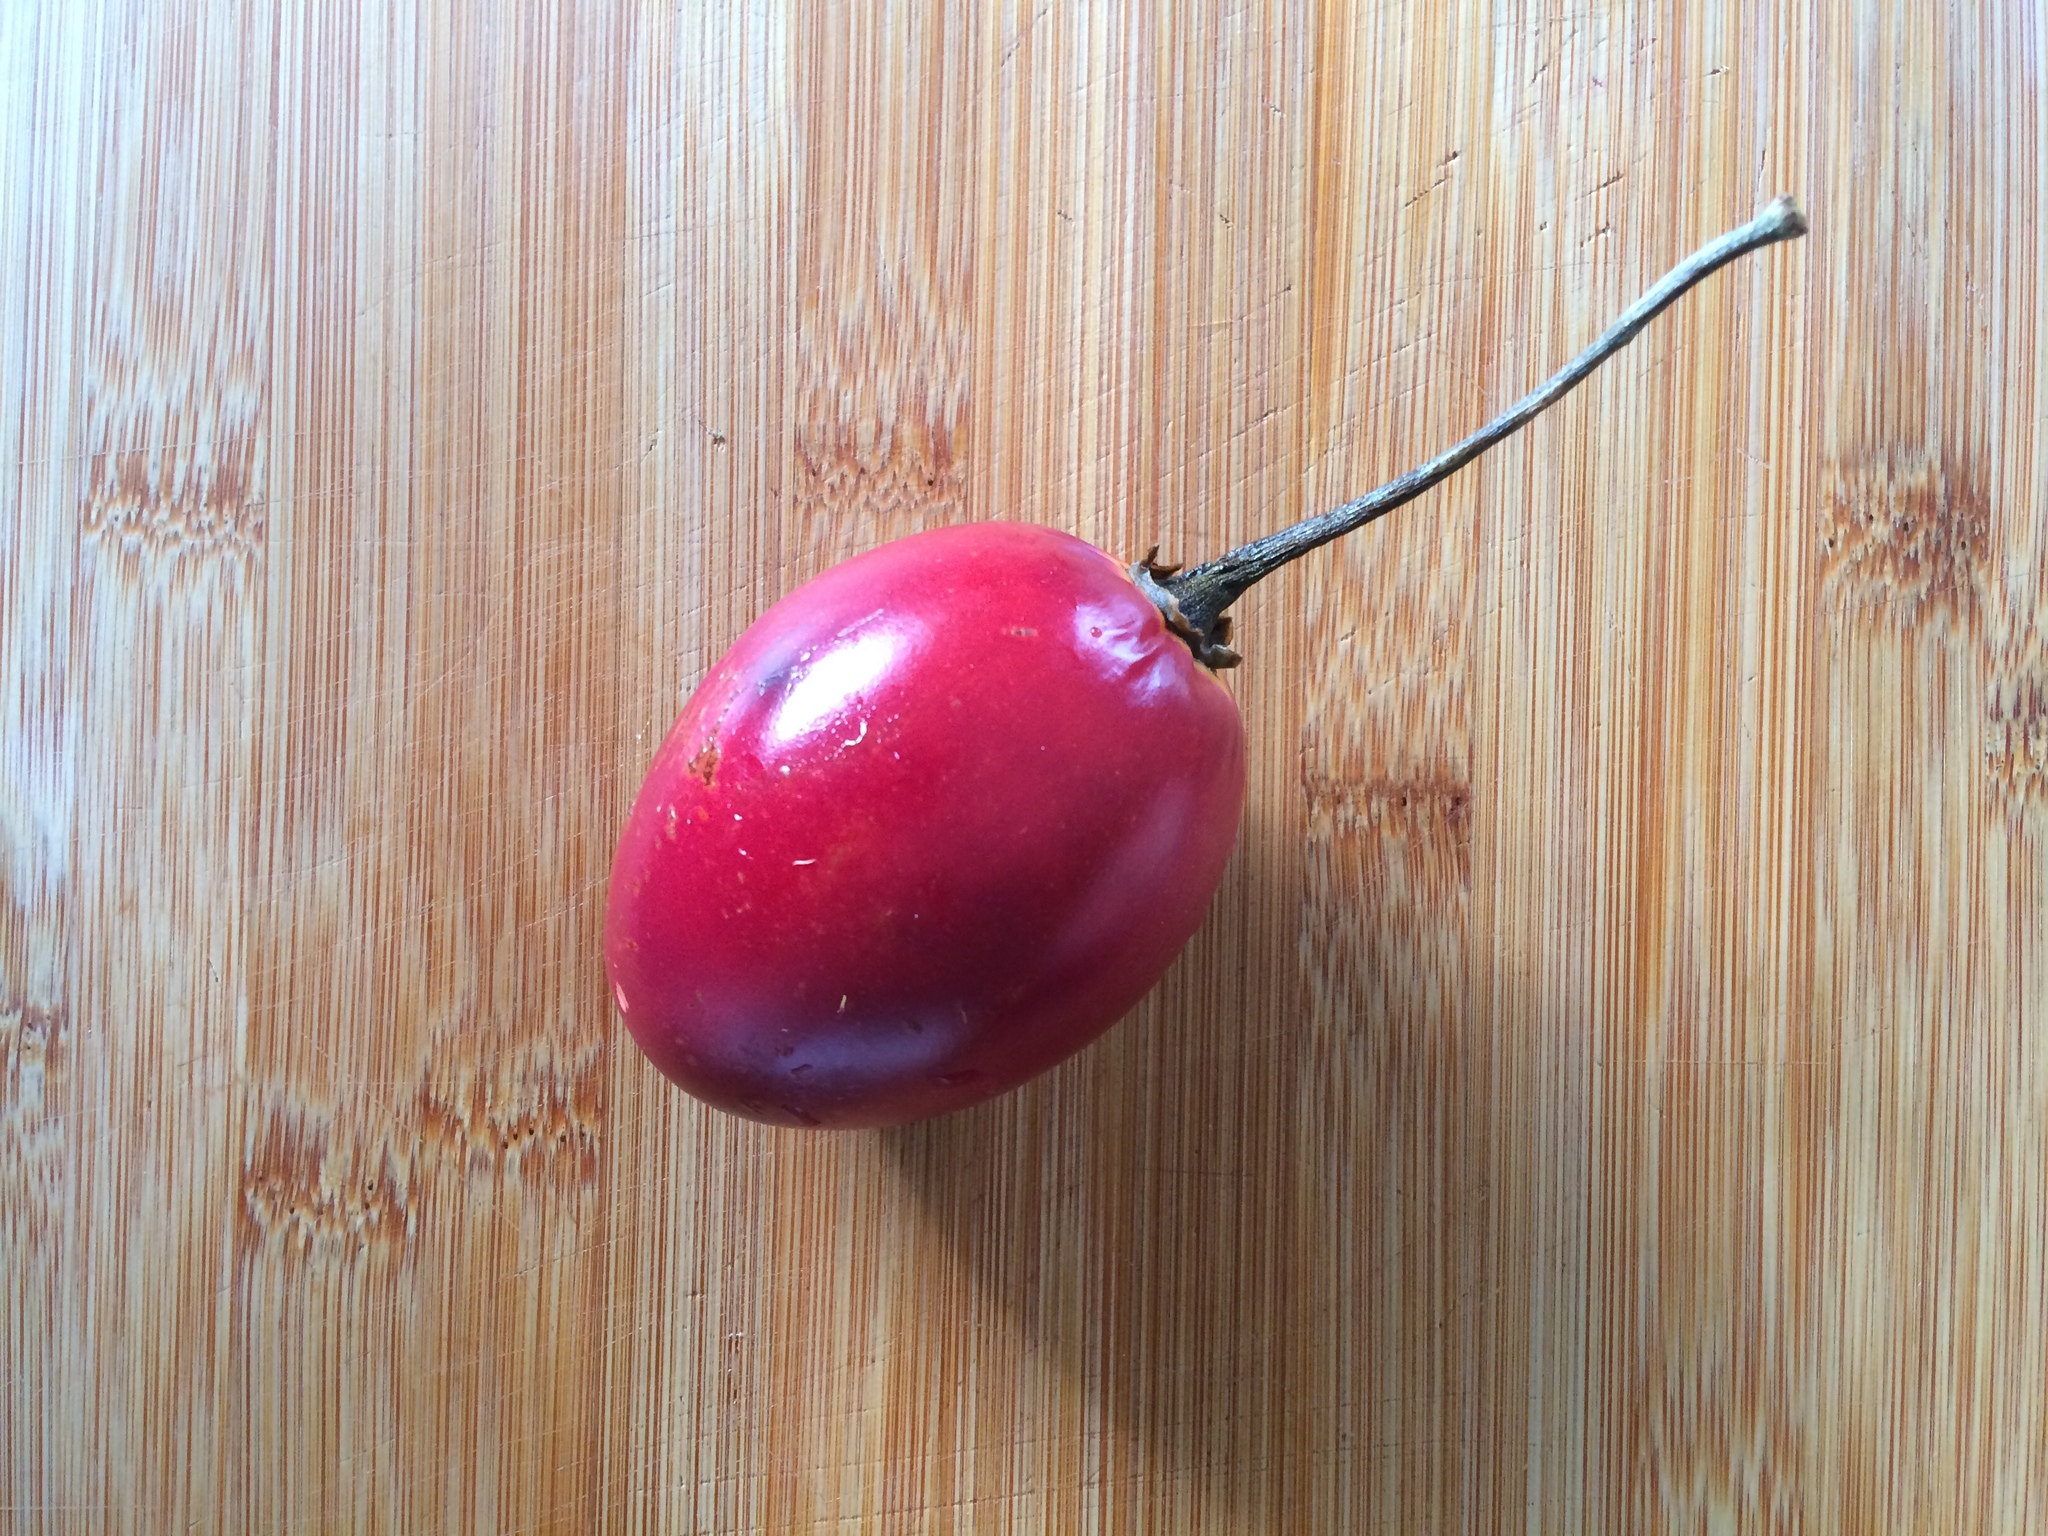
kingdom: Plantae
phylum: Tracheophyta
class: Magnoliopsida
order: Solanales
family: Solanaceae
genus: Solanum
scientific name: Solanum betaceum
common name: Tamarillo
